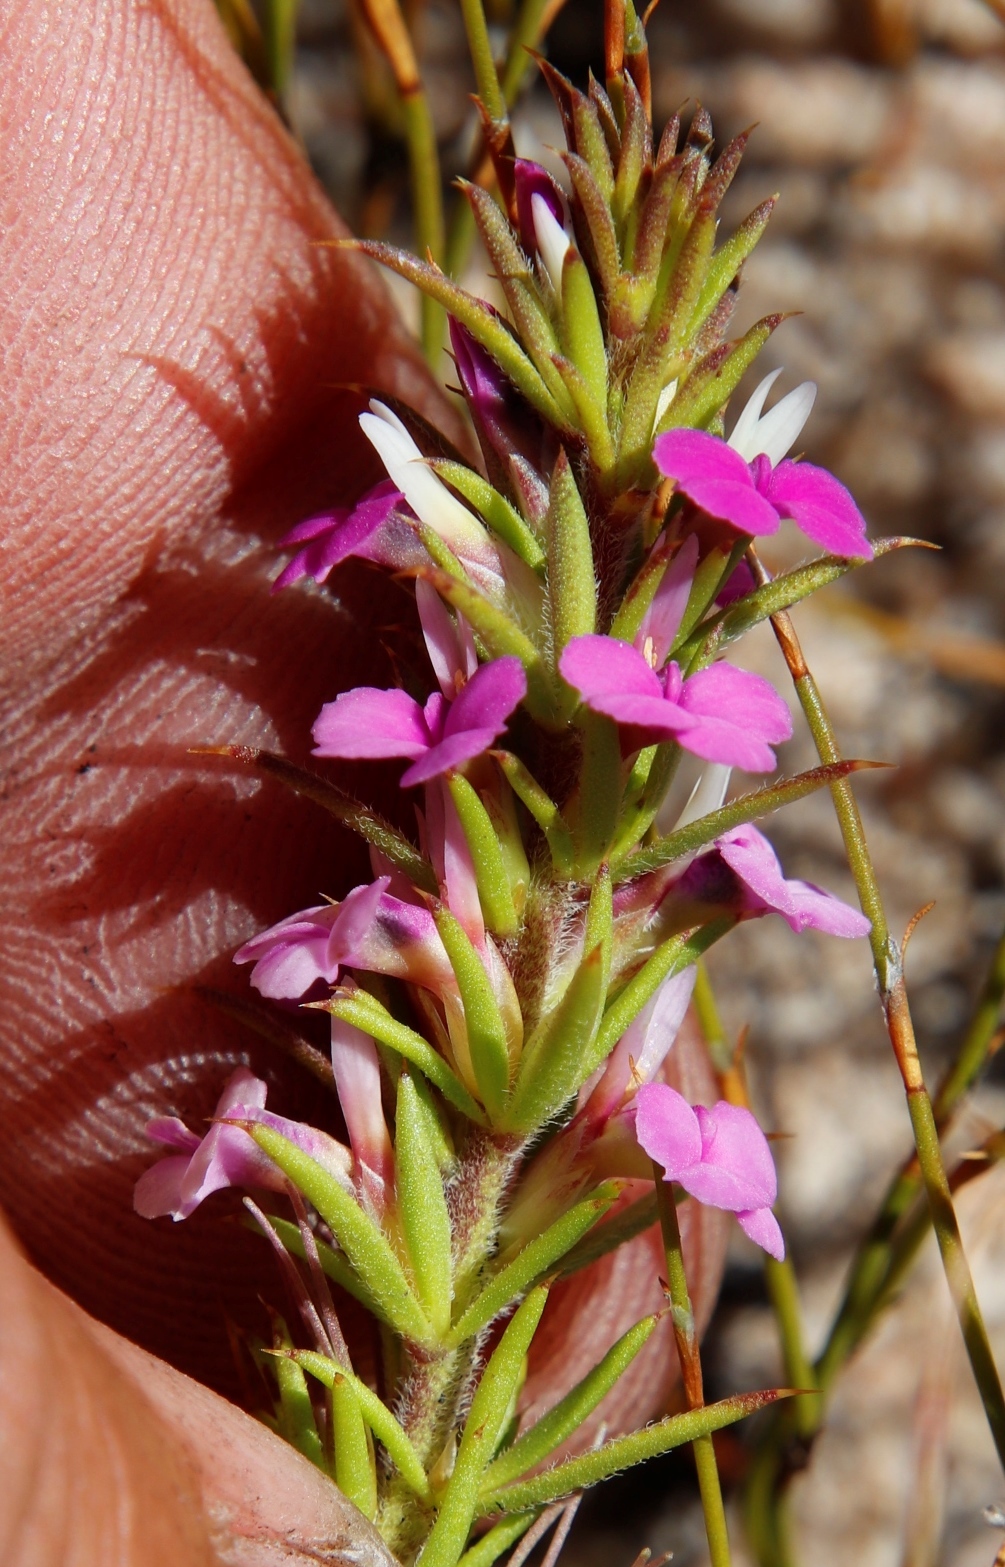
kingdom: Plantae
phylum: Tracheophyta
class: Magnoliopsida
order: Fabales
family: Polygalaceae
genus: Muraltia
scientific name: Muraltia heisteria
